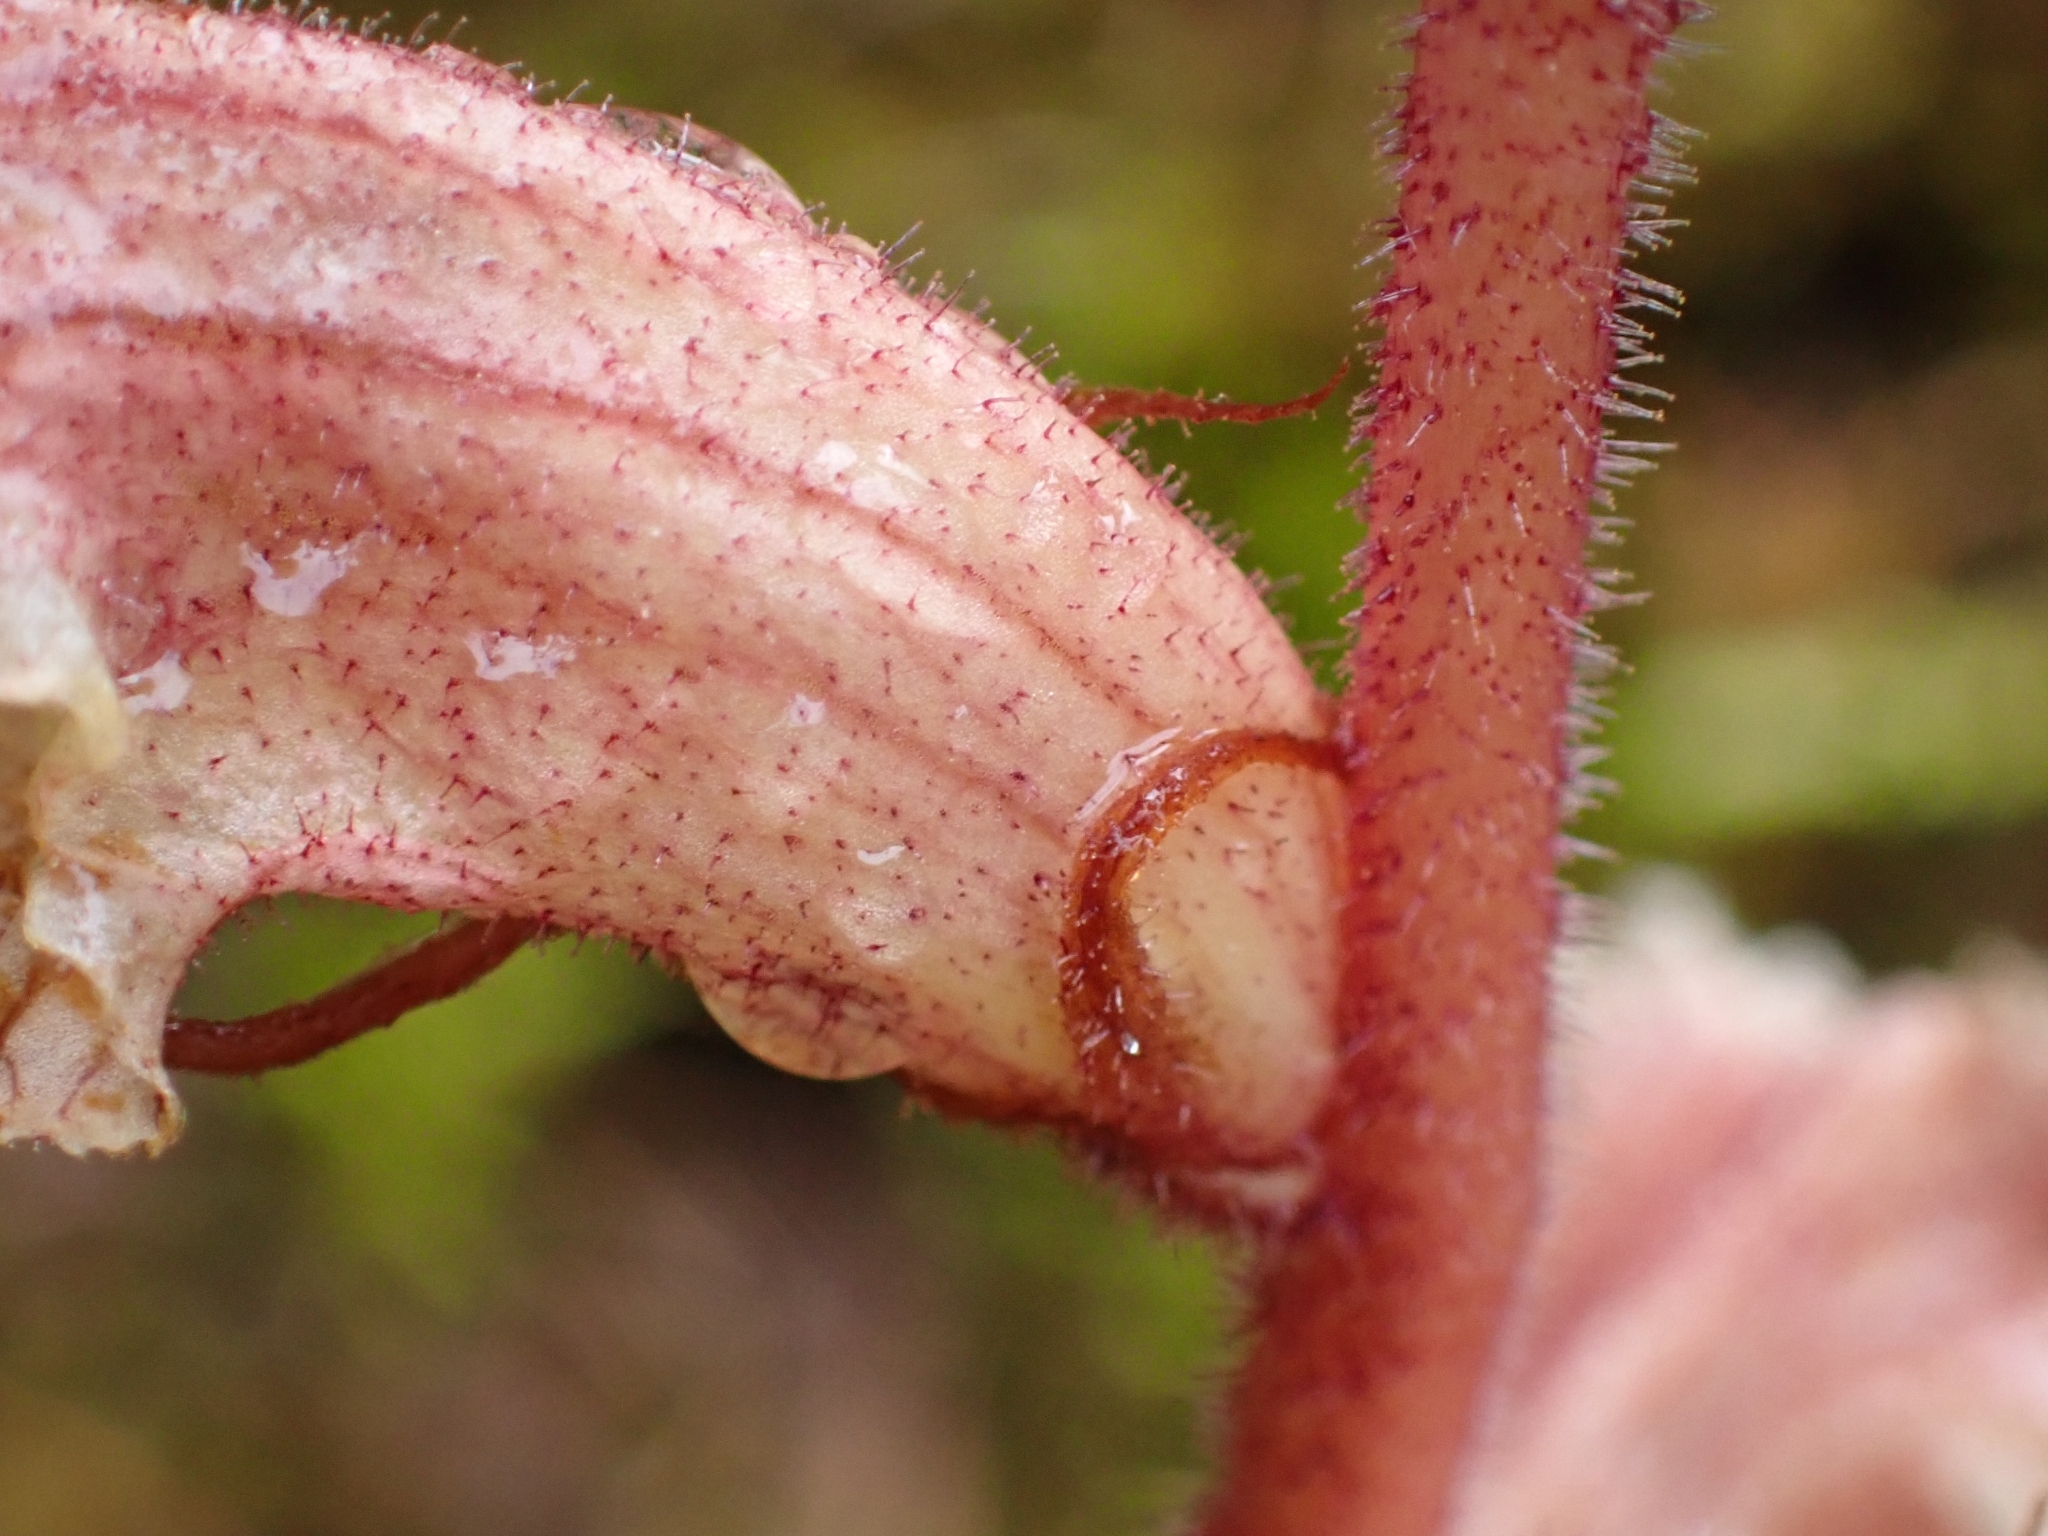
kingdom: Plantae
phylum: Tracheophyta
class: Magnoliopsida
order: Lamiales
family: Orobanchaceae
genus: Orobanche
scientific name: Orobanche alba
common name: Thyme broomrape
